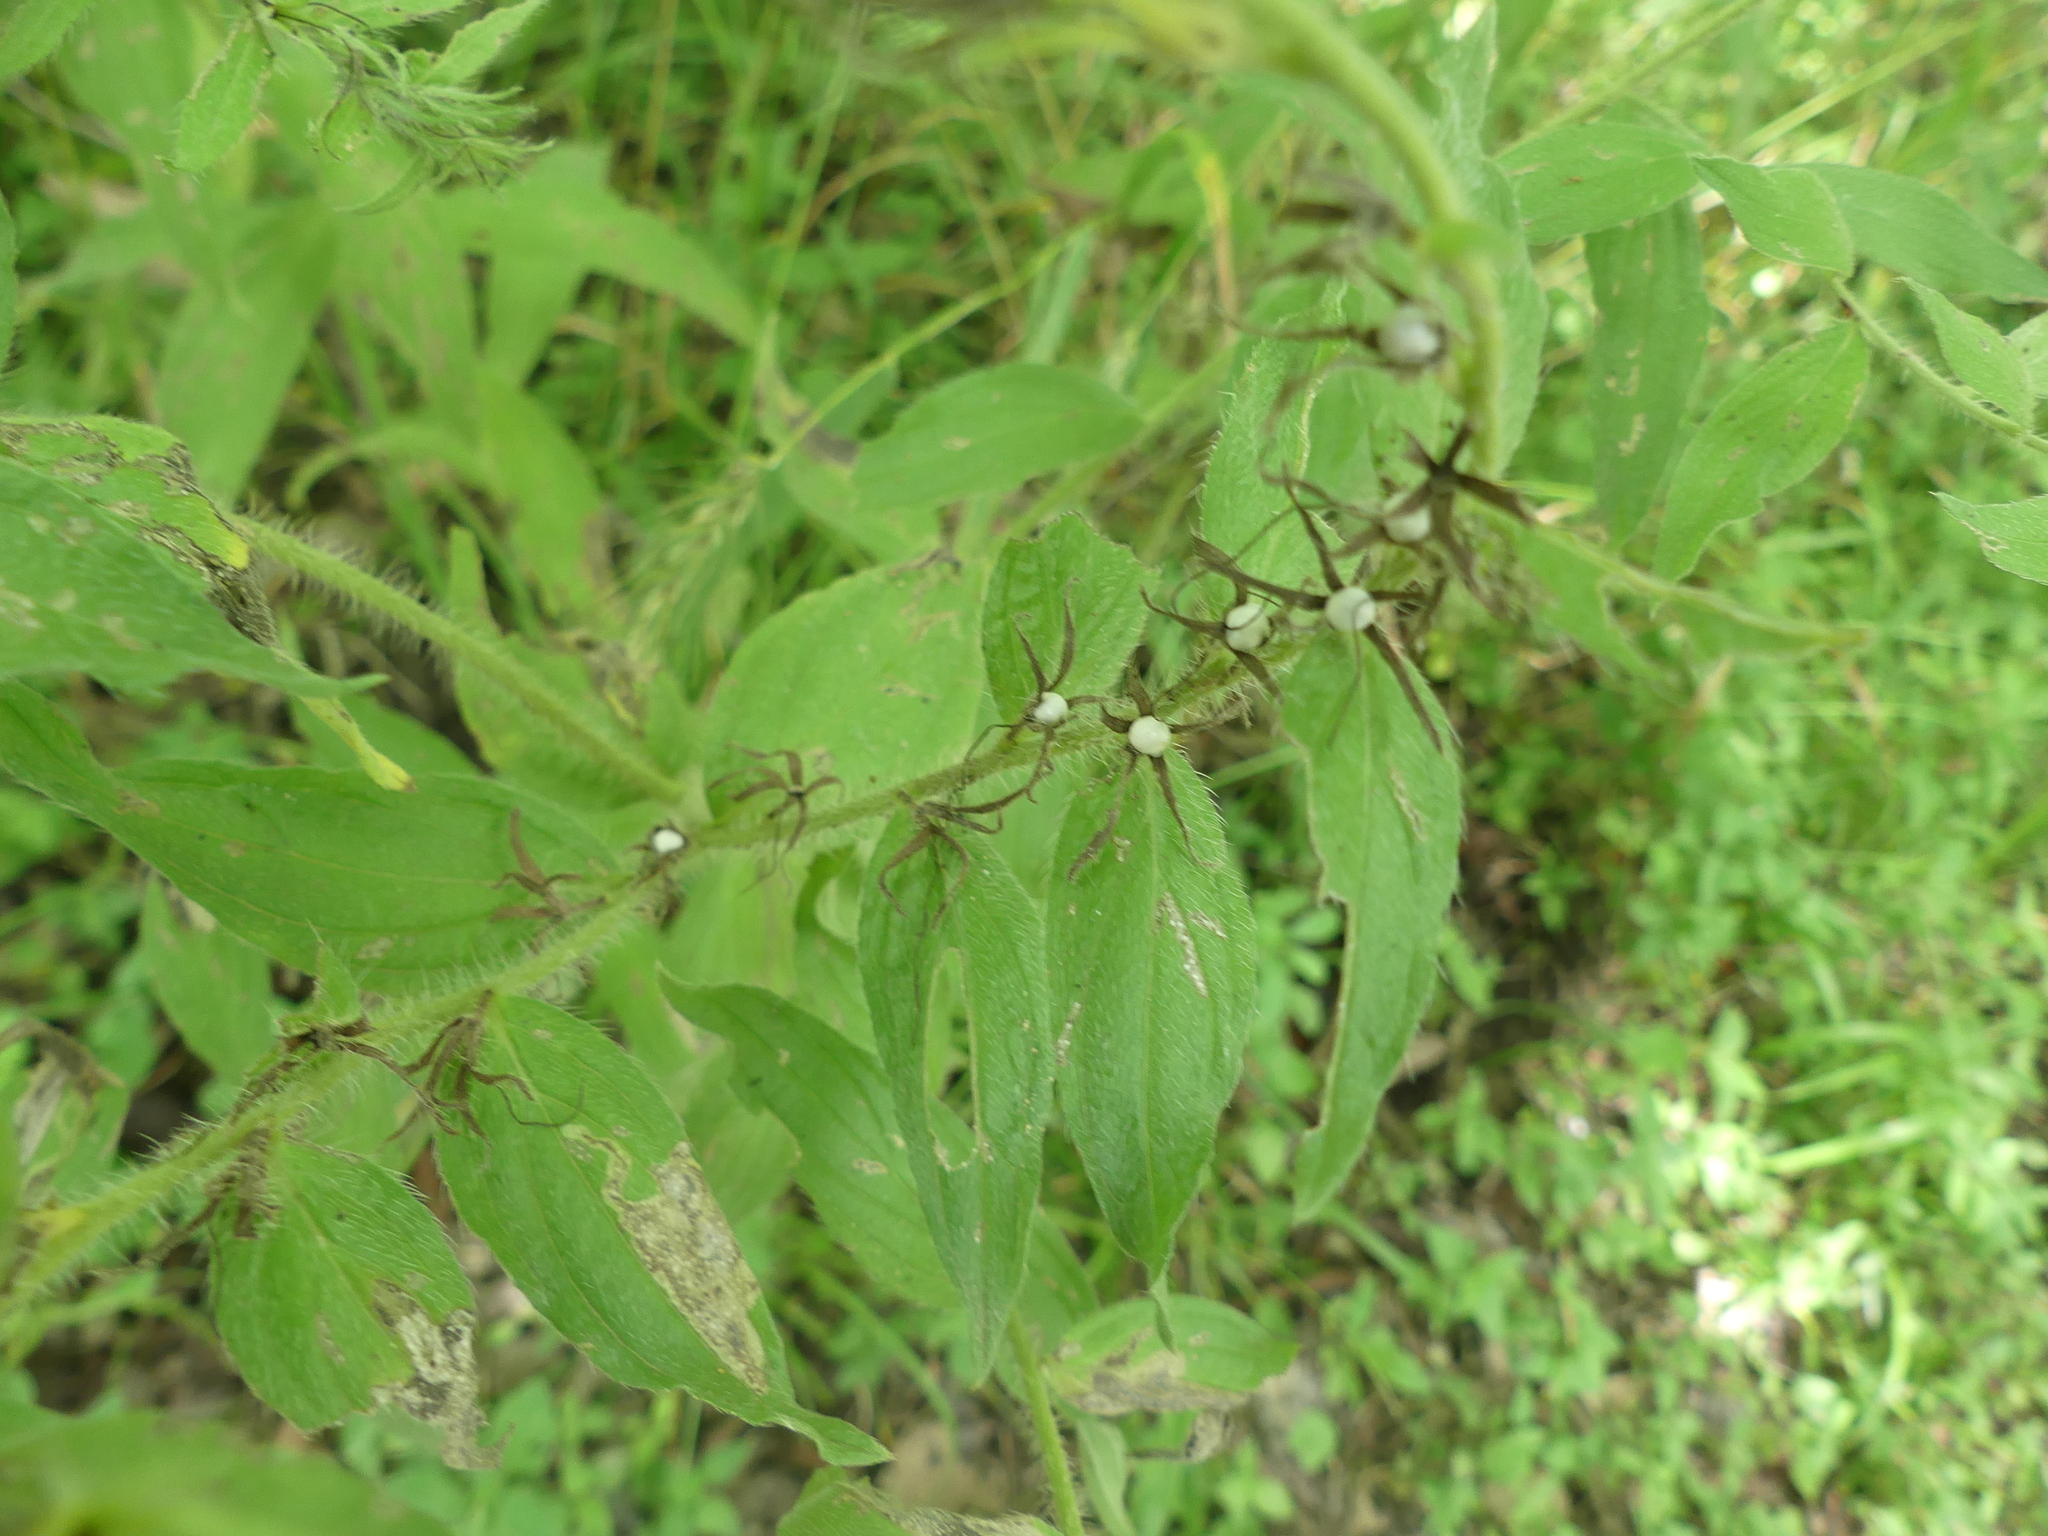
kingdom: Plantae
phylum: Tracheophyta
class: Magnoliopsida
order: Boraginales
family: Boraginaceae
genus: Lithospermum
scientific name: Lithospermum caroliniense
